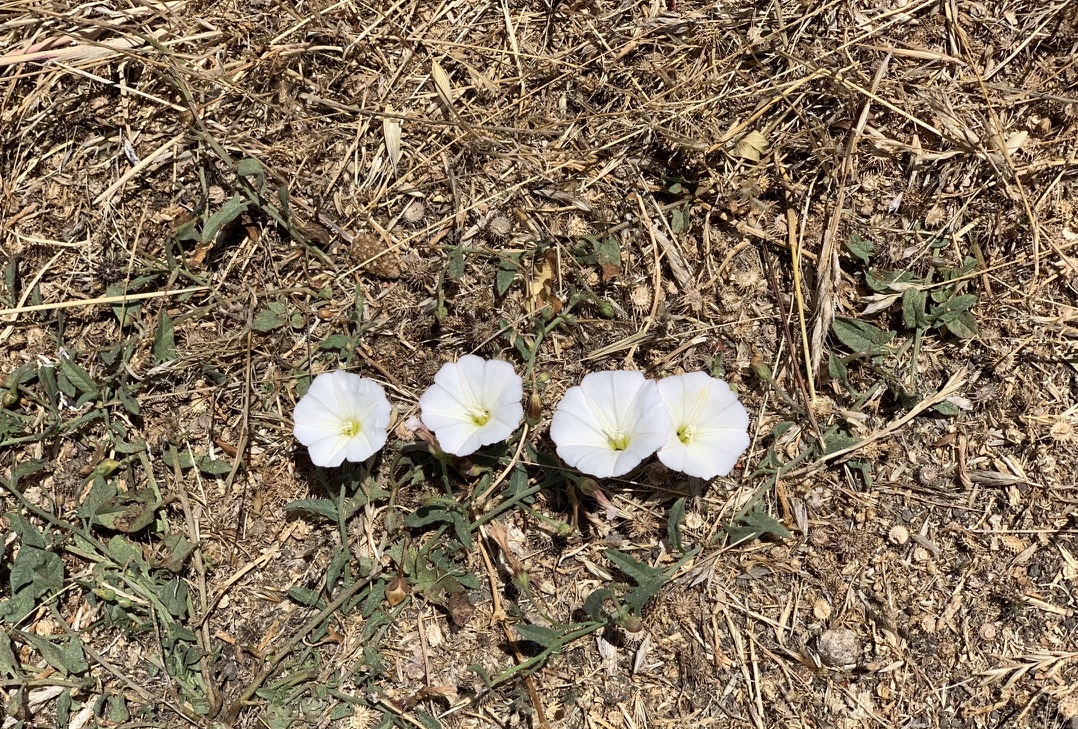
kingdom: Plantae
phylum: Tracheophyta
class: Magnoliopsida
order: Solanales
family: Convolvulaceae
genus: Convolvulus
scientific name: Convolvulus arvensis
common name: Field bindweed
